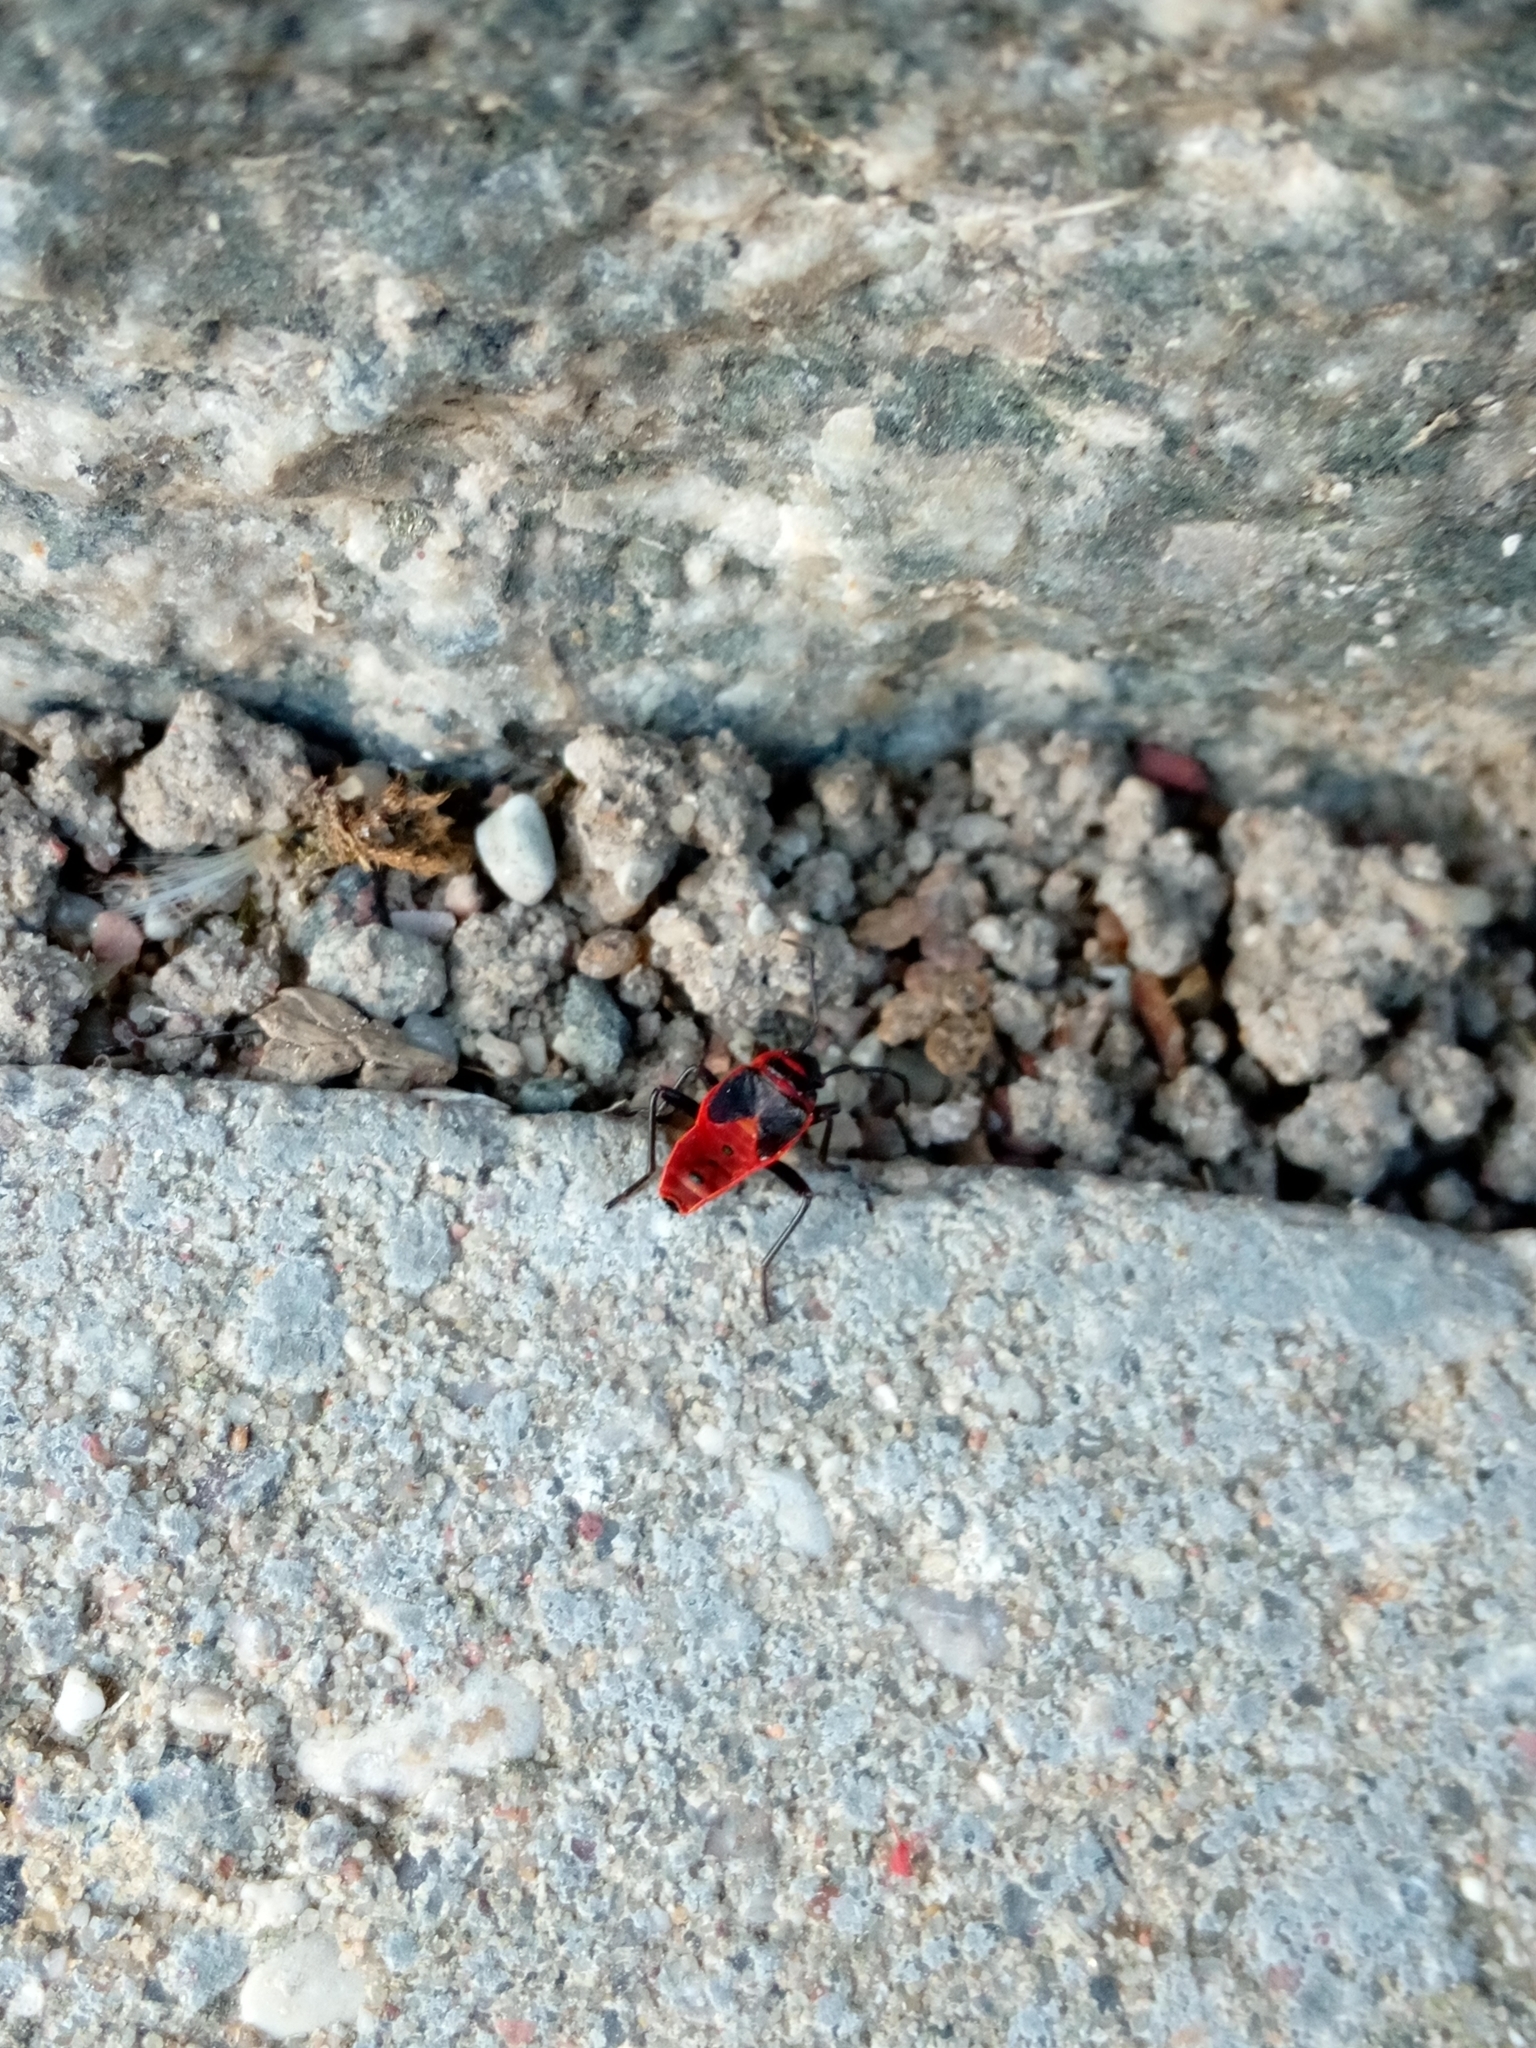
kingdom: Animalia
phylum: Arthropoda
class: Insecta
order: Hemiptera
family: Pyrrhocoridae
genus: Pyrrhocoris
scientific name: Pyrrhocoris apterus
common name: Firebug
